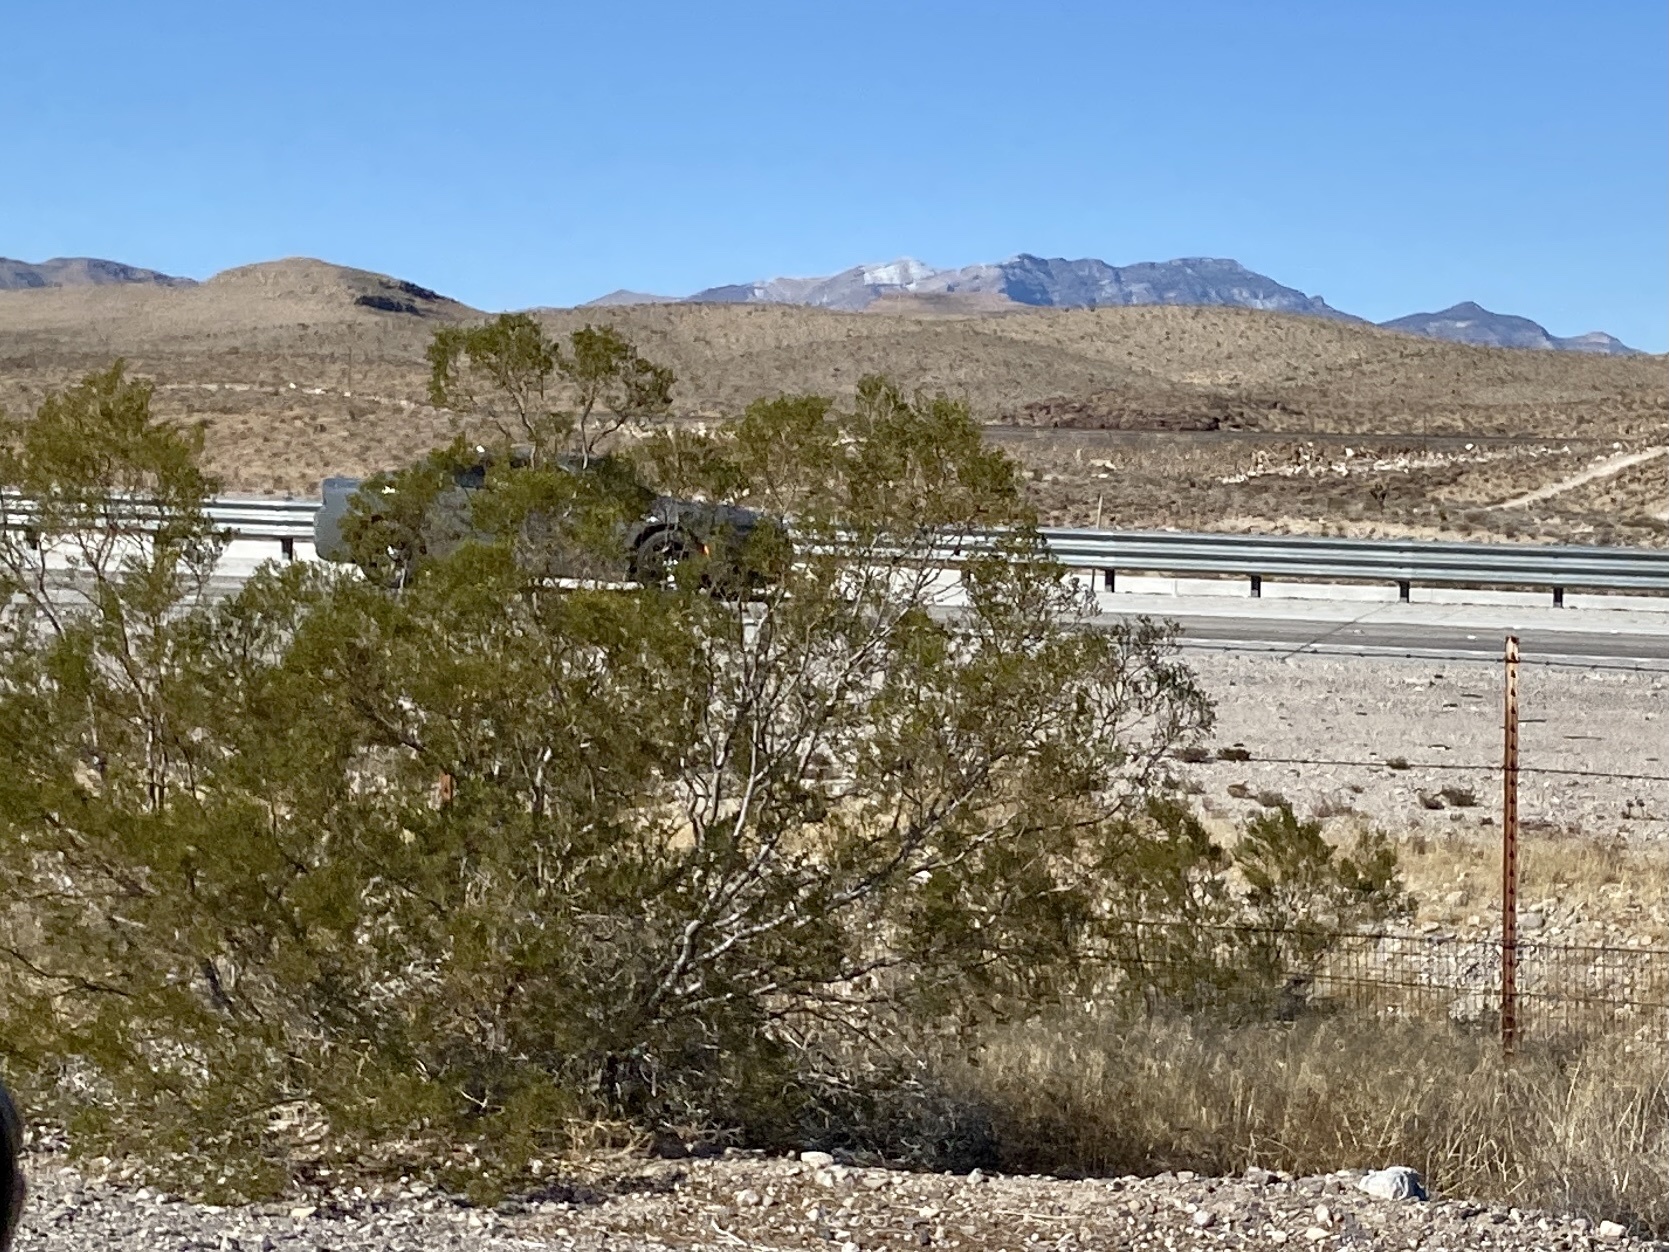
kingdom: Plantae
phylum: Tracheophyta
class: Magnoliopsida
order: Zygophyllales
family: Zygophyllaceae
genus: Larrea
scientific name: Larrea tridentata
